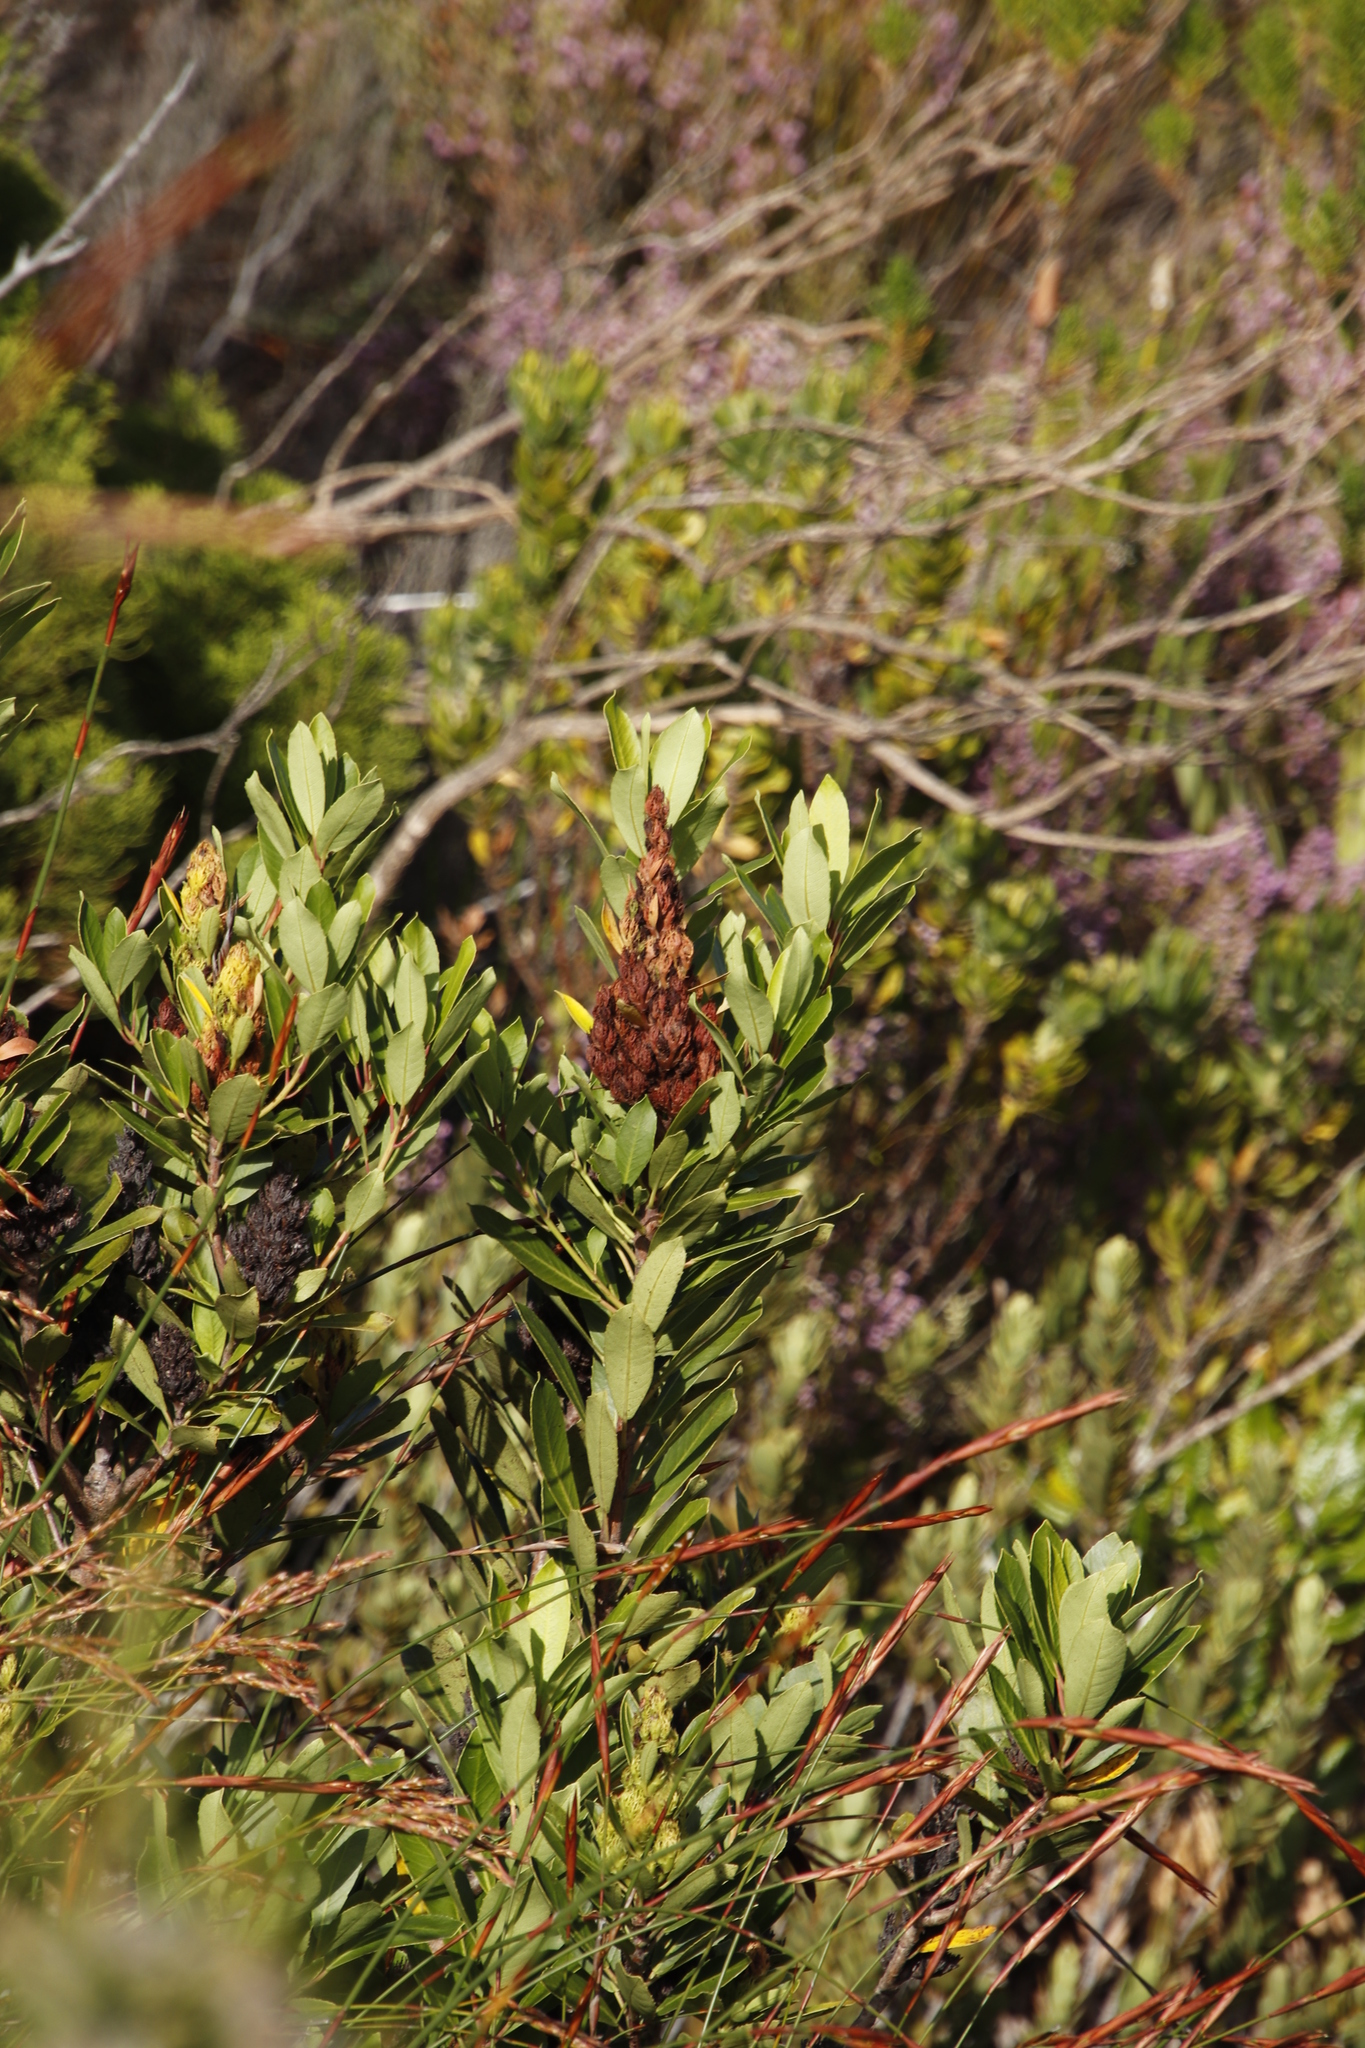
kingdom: Plantae
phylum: Tracheophyta
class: Magnoliopsida
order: Sapindales
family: Anacardiaceae
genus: Laurophyllus
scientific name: Laurophyllus capensis
